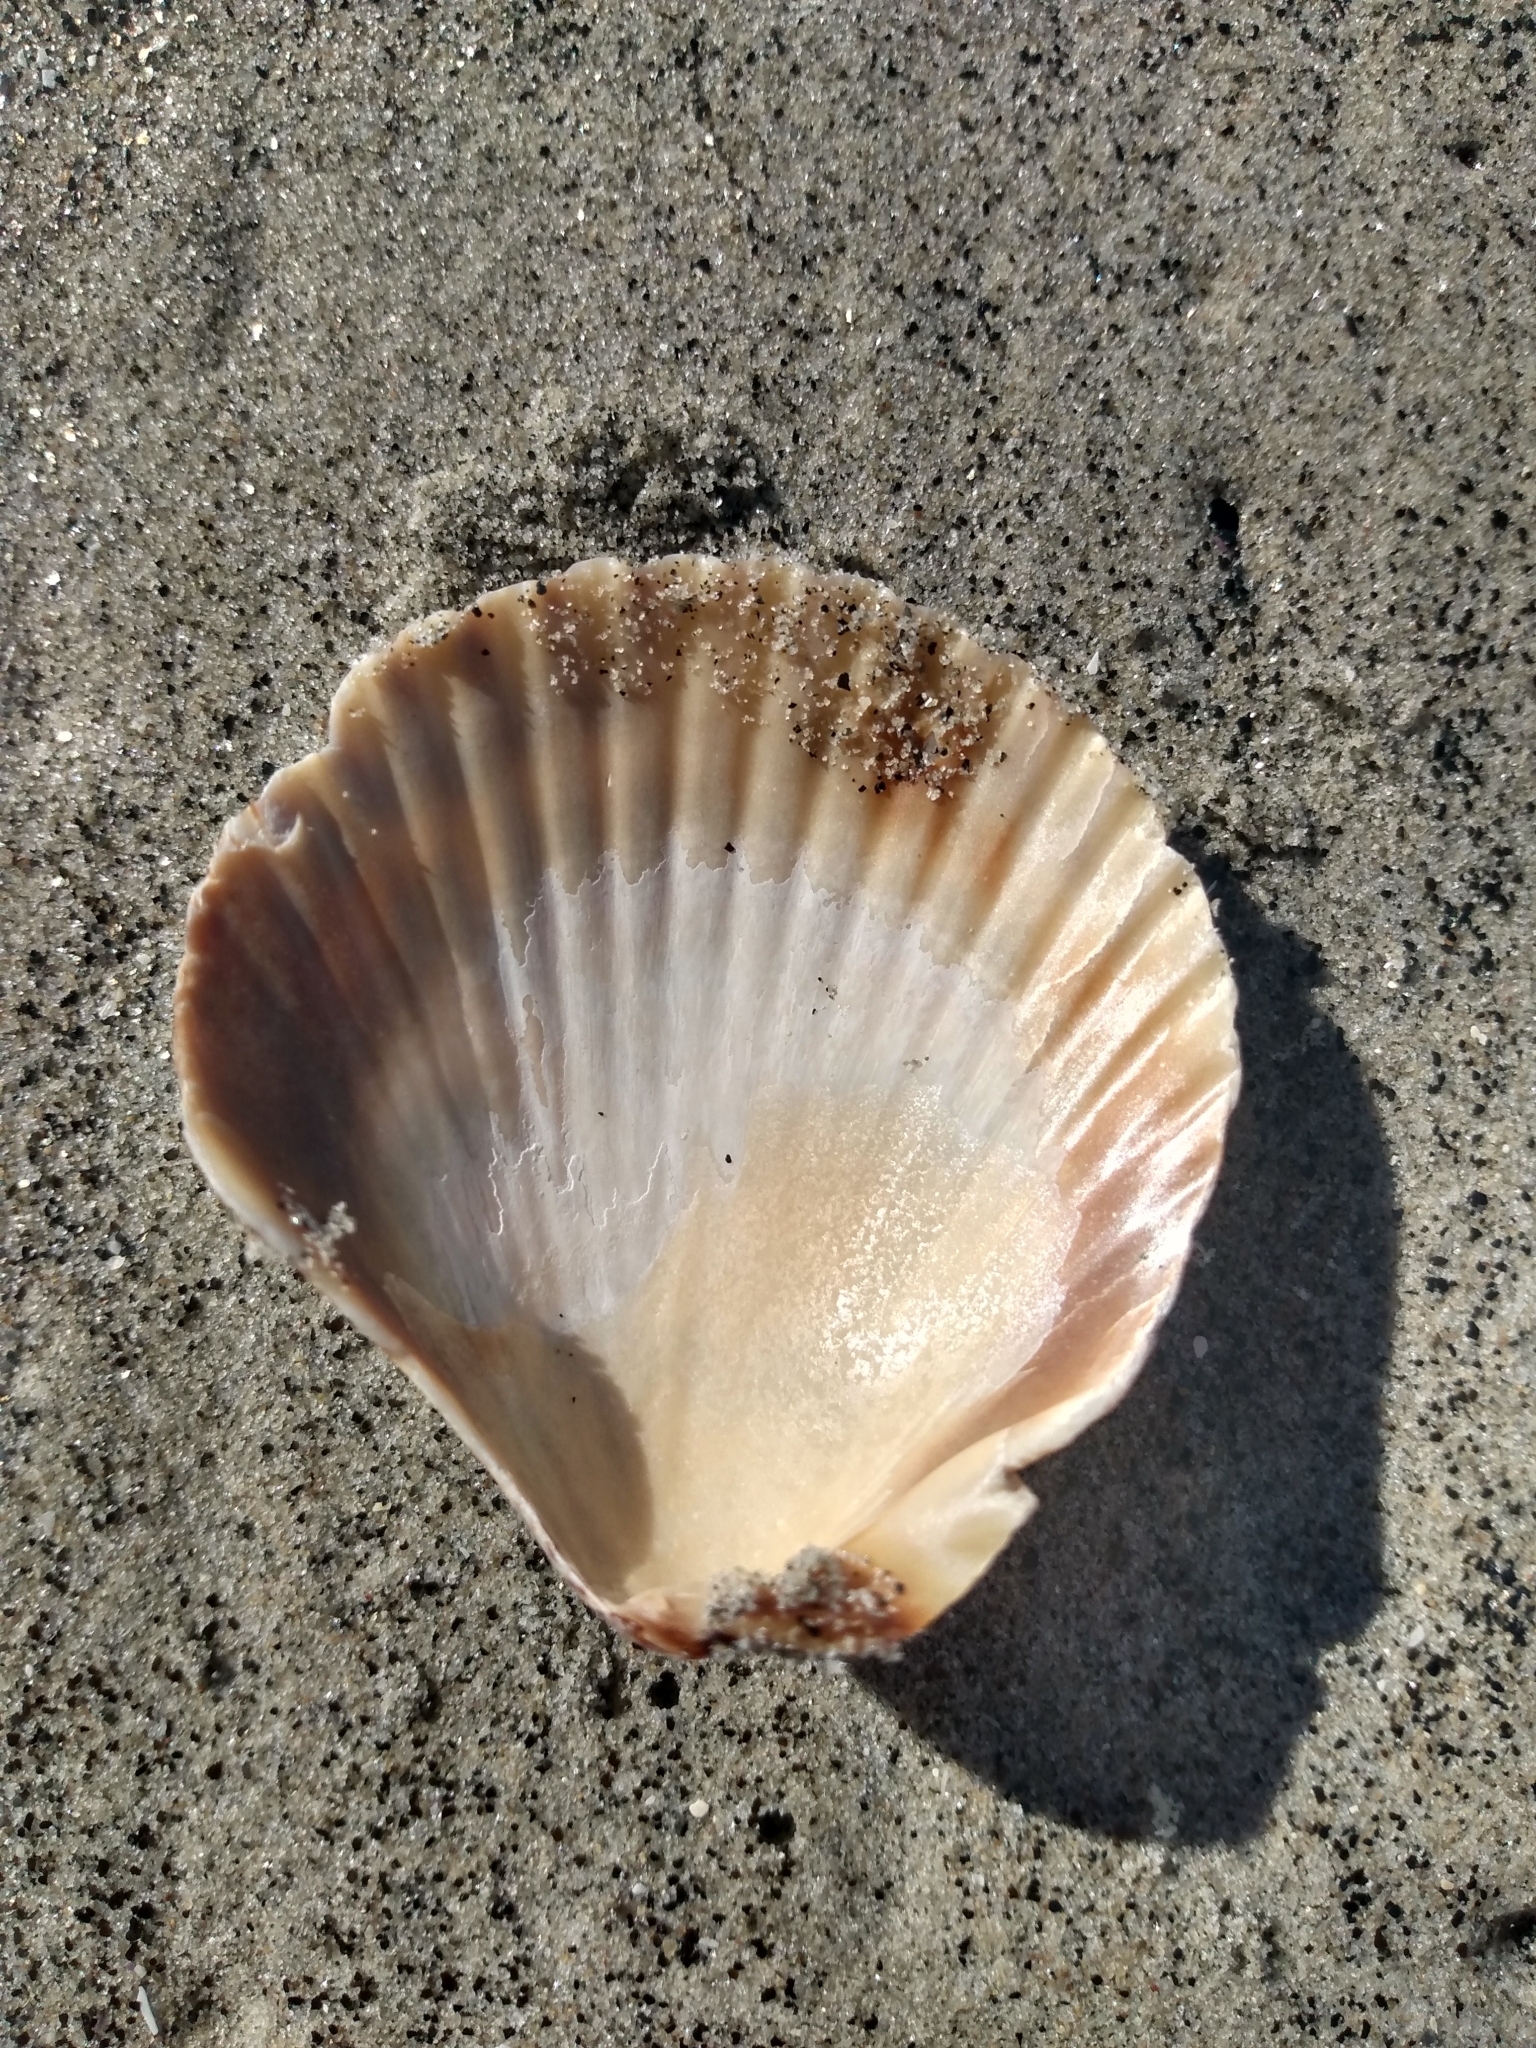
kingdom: Animalia
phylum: Mollusca
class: Bivalvia
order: Pectinida
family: Pectinidae
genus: Argopecten
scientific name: Argopecten ventricosus
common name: Catarina scallop
